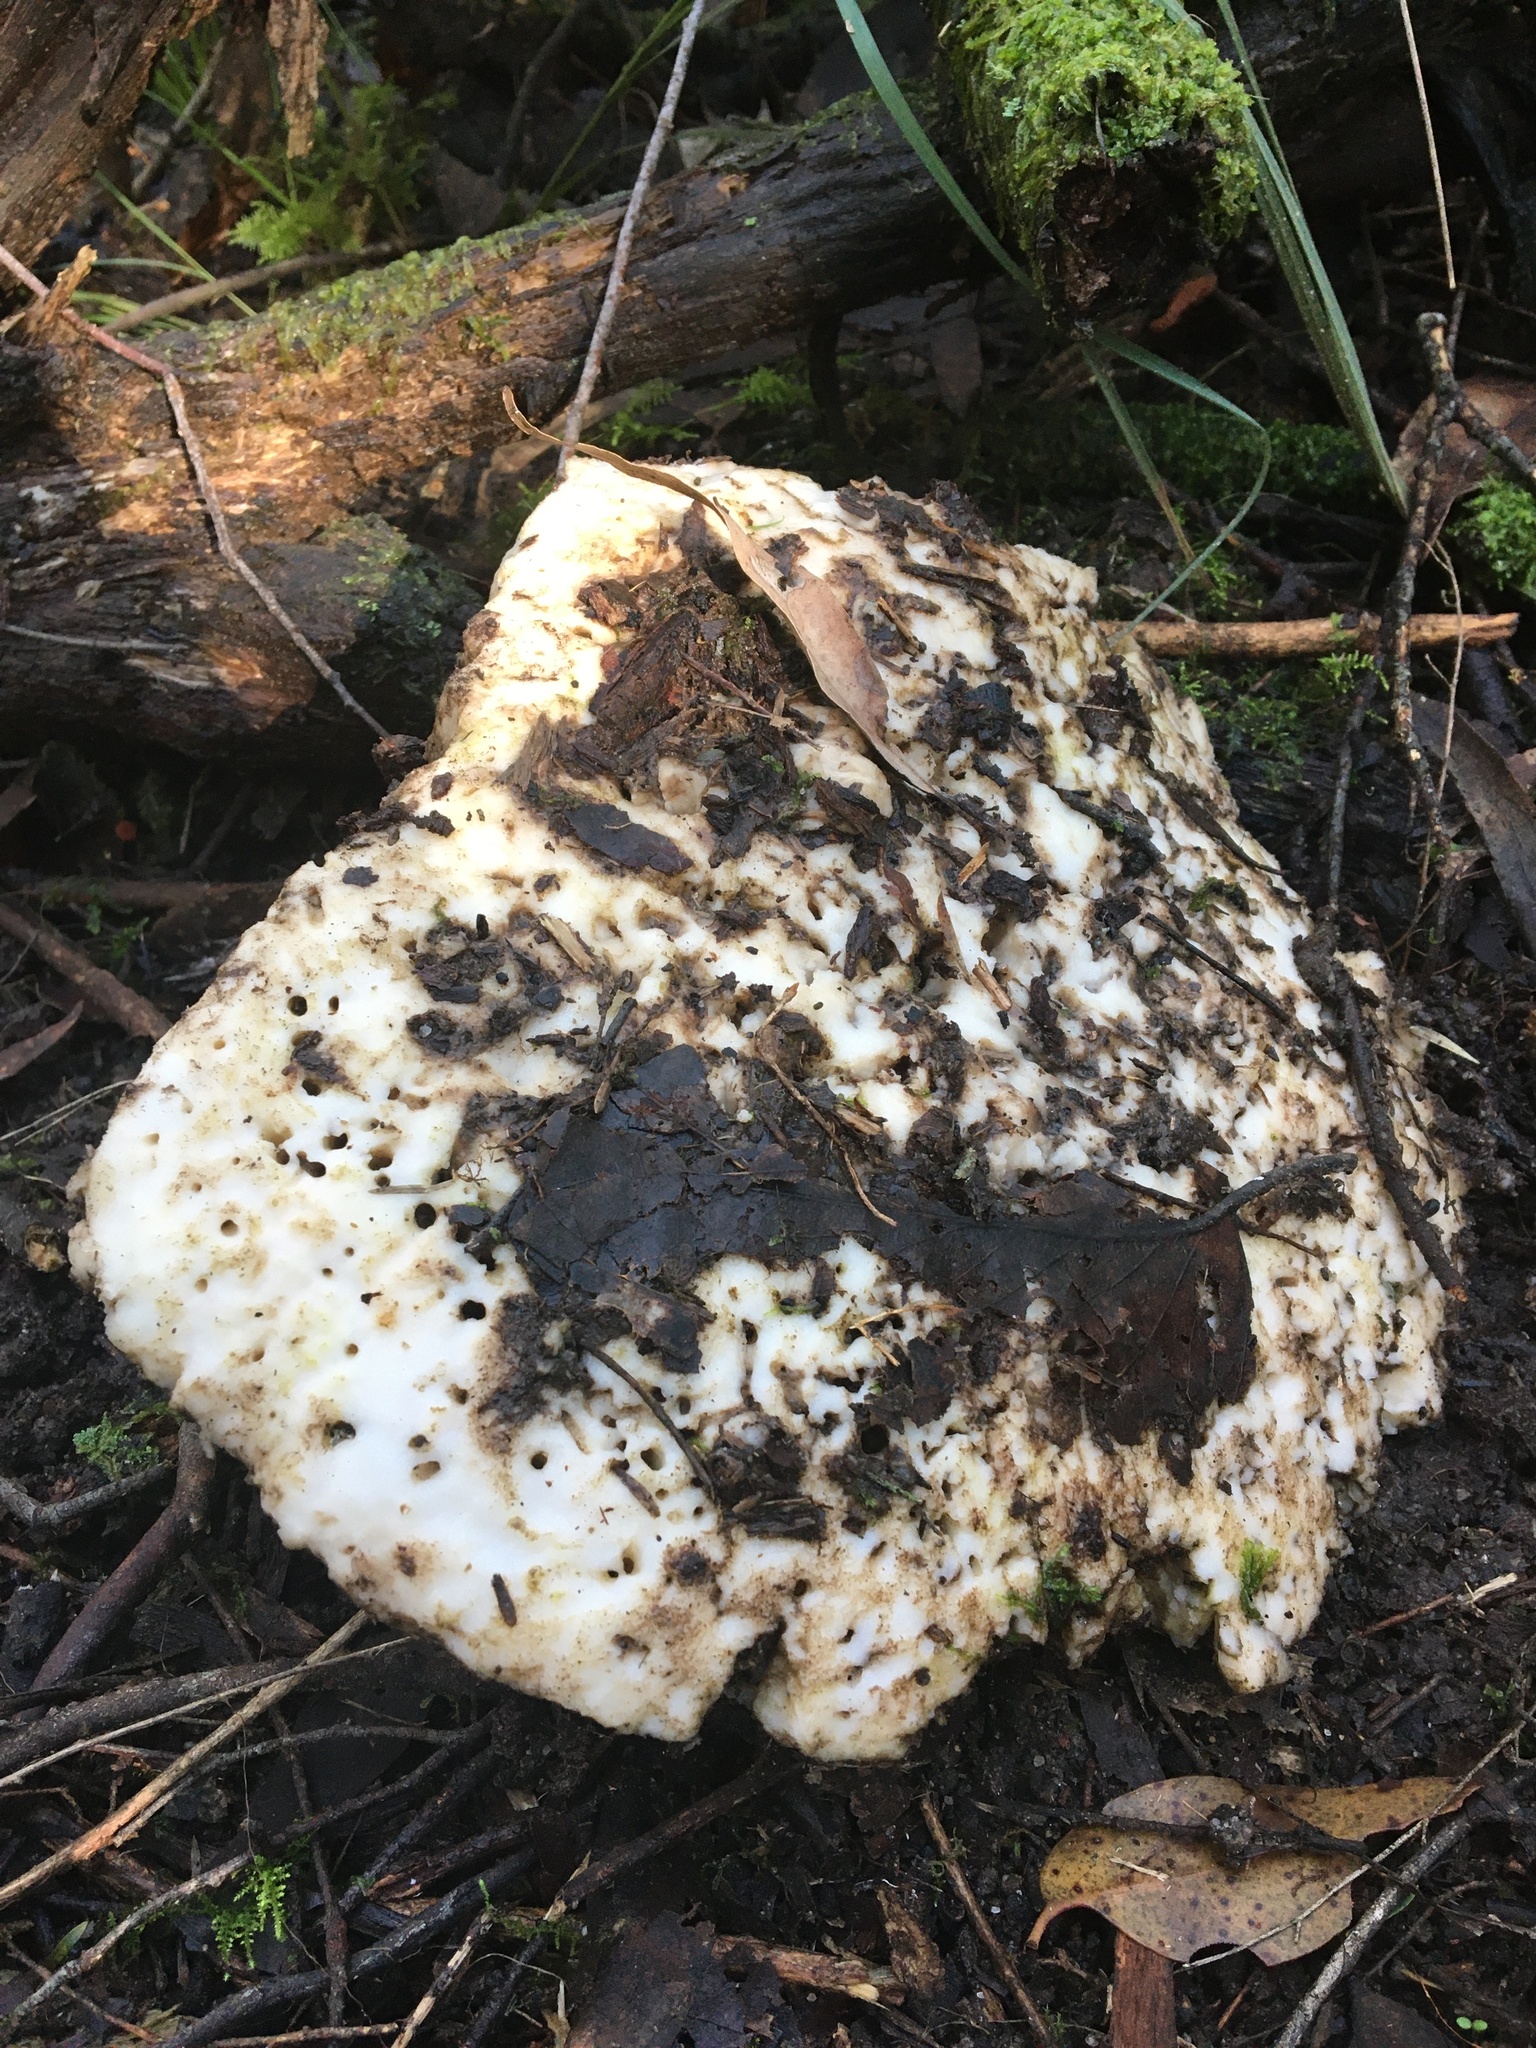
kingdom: Fungi
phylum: Basidiomycota
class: Agaricomycetes
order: Polyporales
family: Laetiporaceae
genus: Laetiporus
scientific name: Laetiporus portentosus
